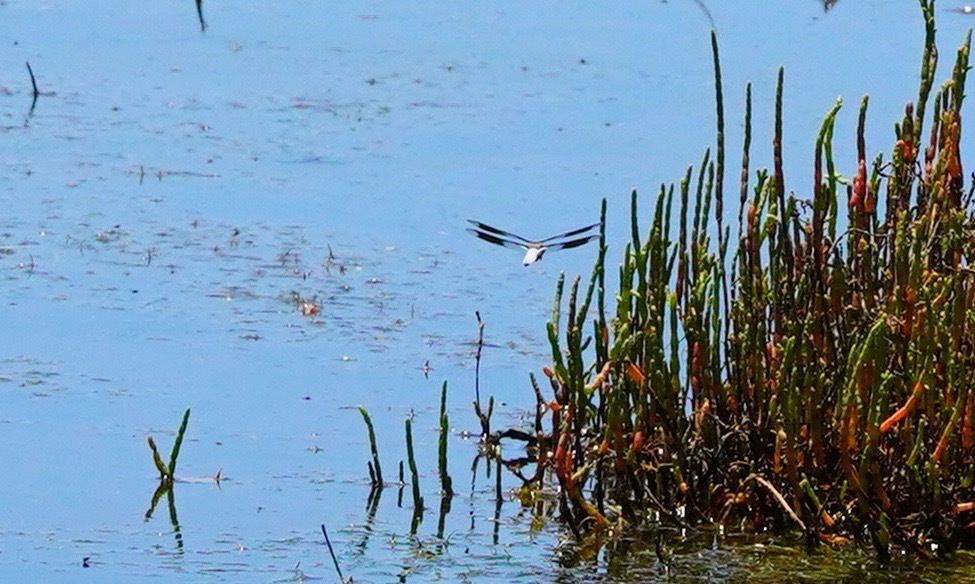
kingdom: Animalia
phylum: Arthropoda
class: Insecta
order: Odonata
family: Libellulidae
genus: Plathemis
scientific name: Plathemis lydia
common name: Common whitetail
